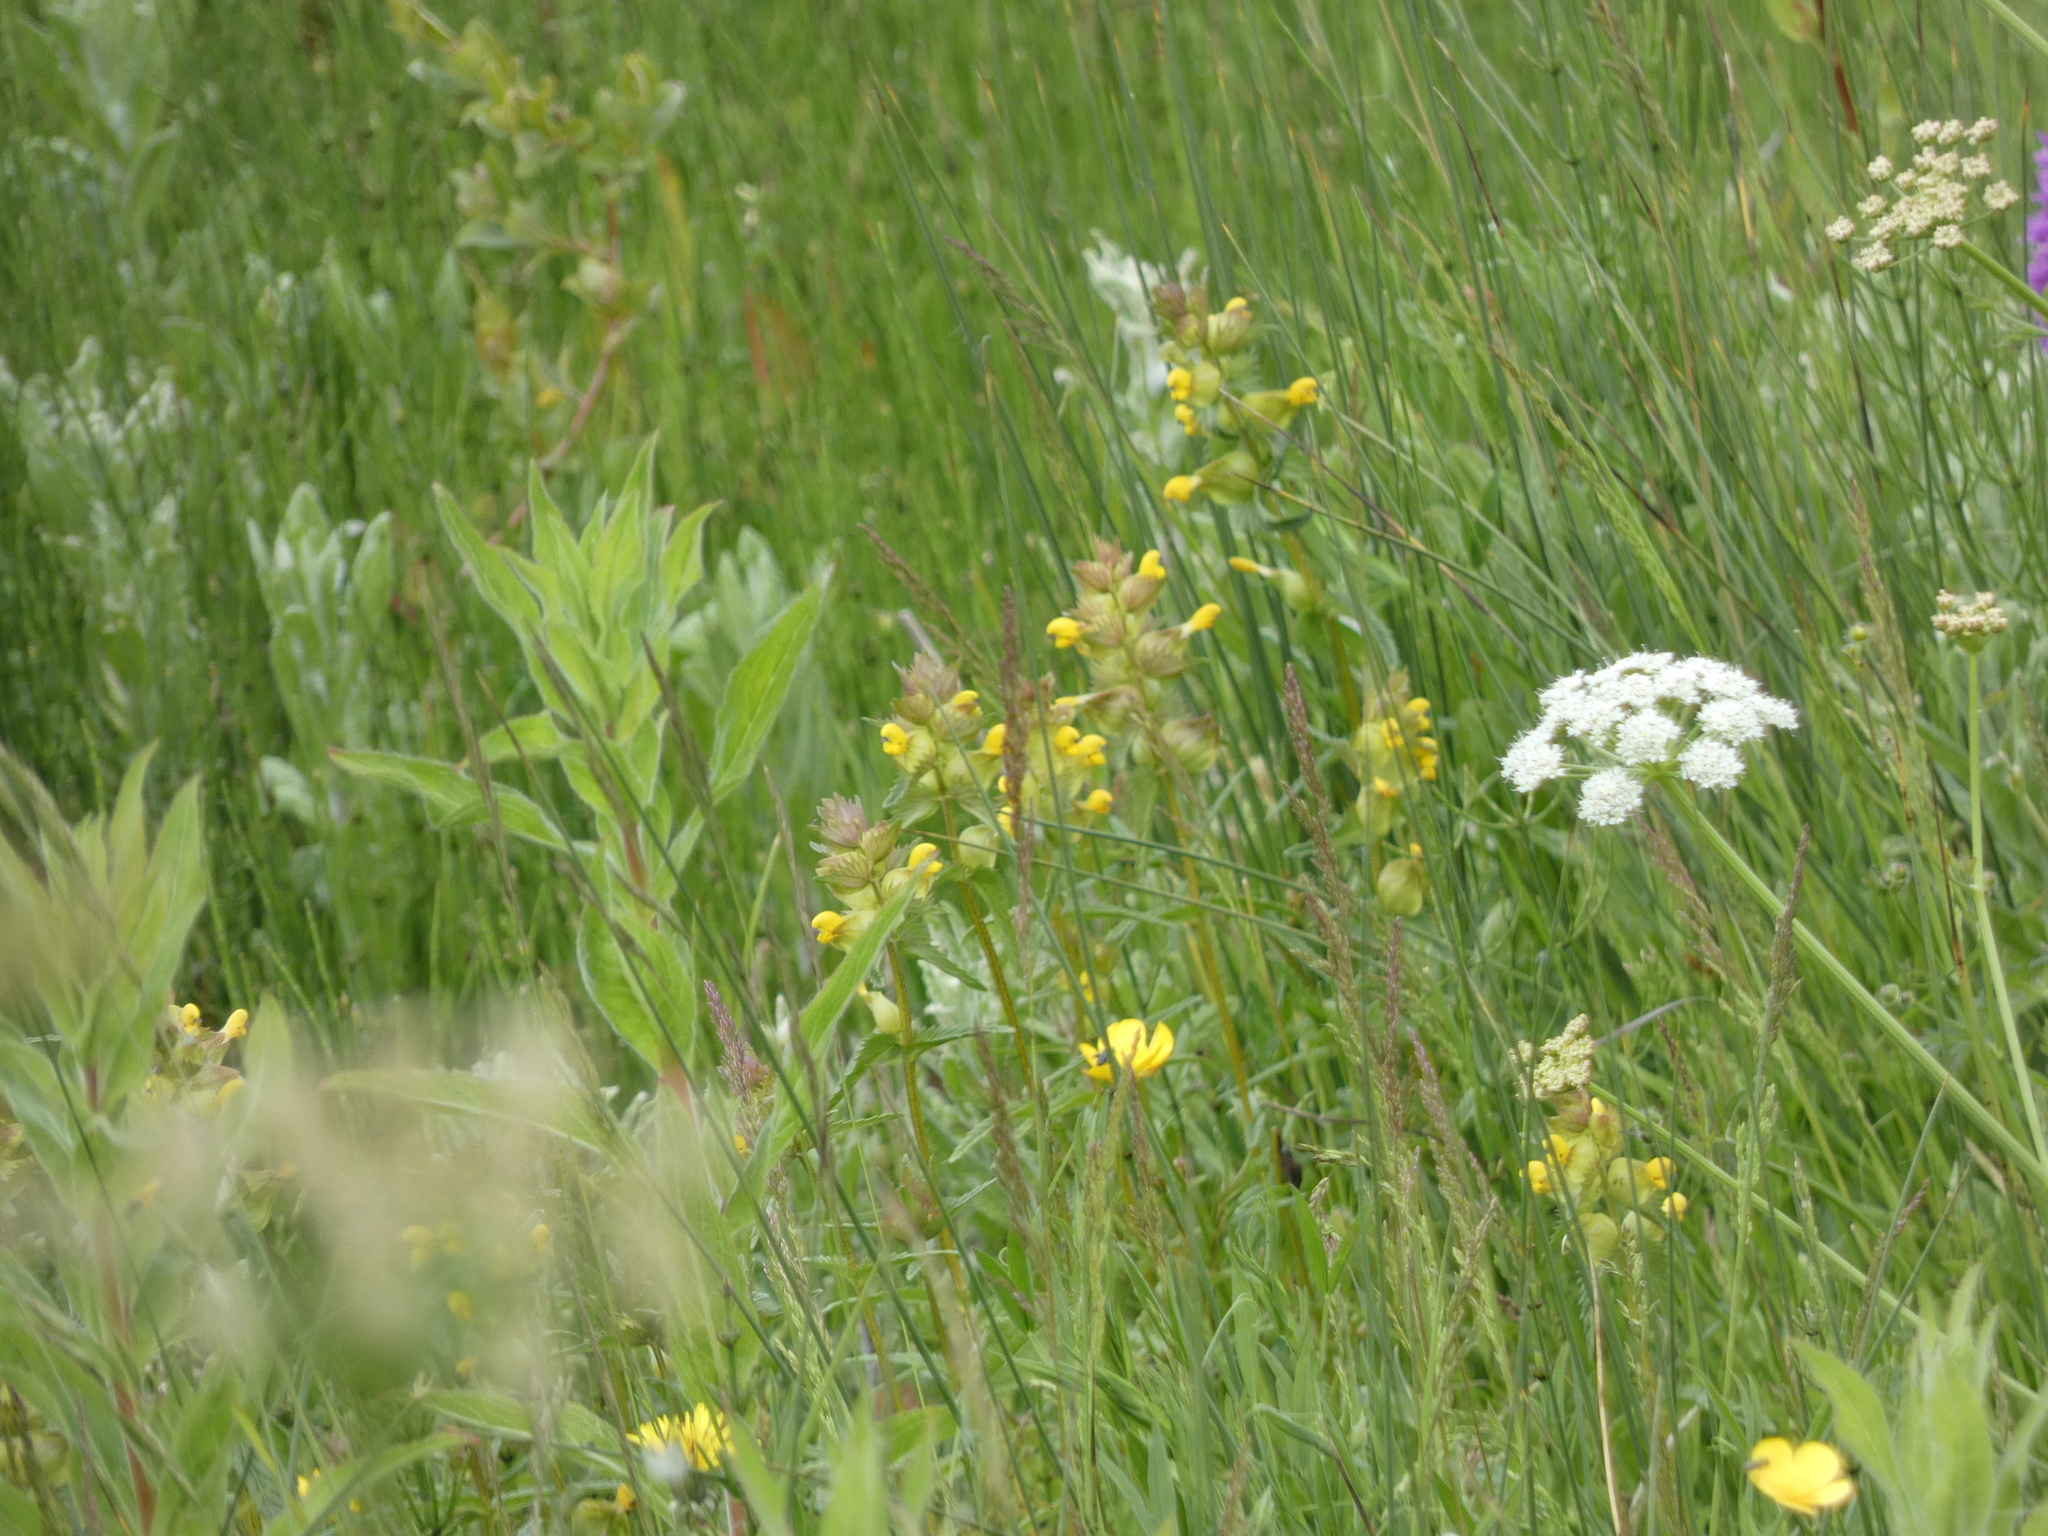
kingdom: Plantae
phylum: Tracheophyta
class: Magnoliopsida
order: Lamiales
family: Orobanchaceae
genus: Rhinanthus
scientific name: Rhinanthus minor
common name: Yellow-rattle
